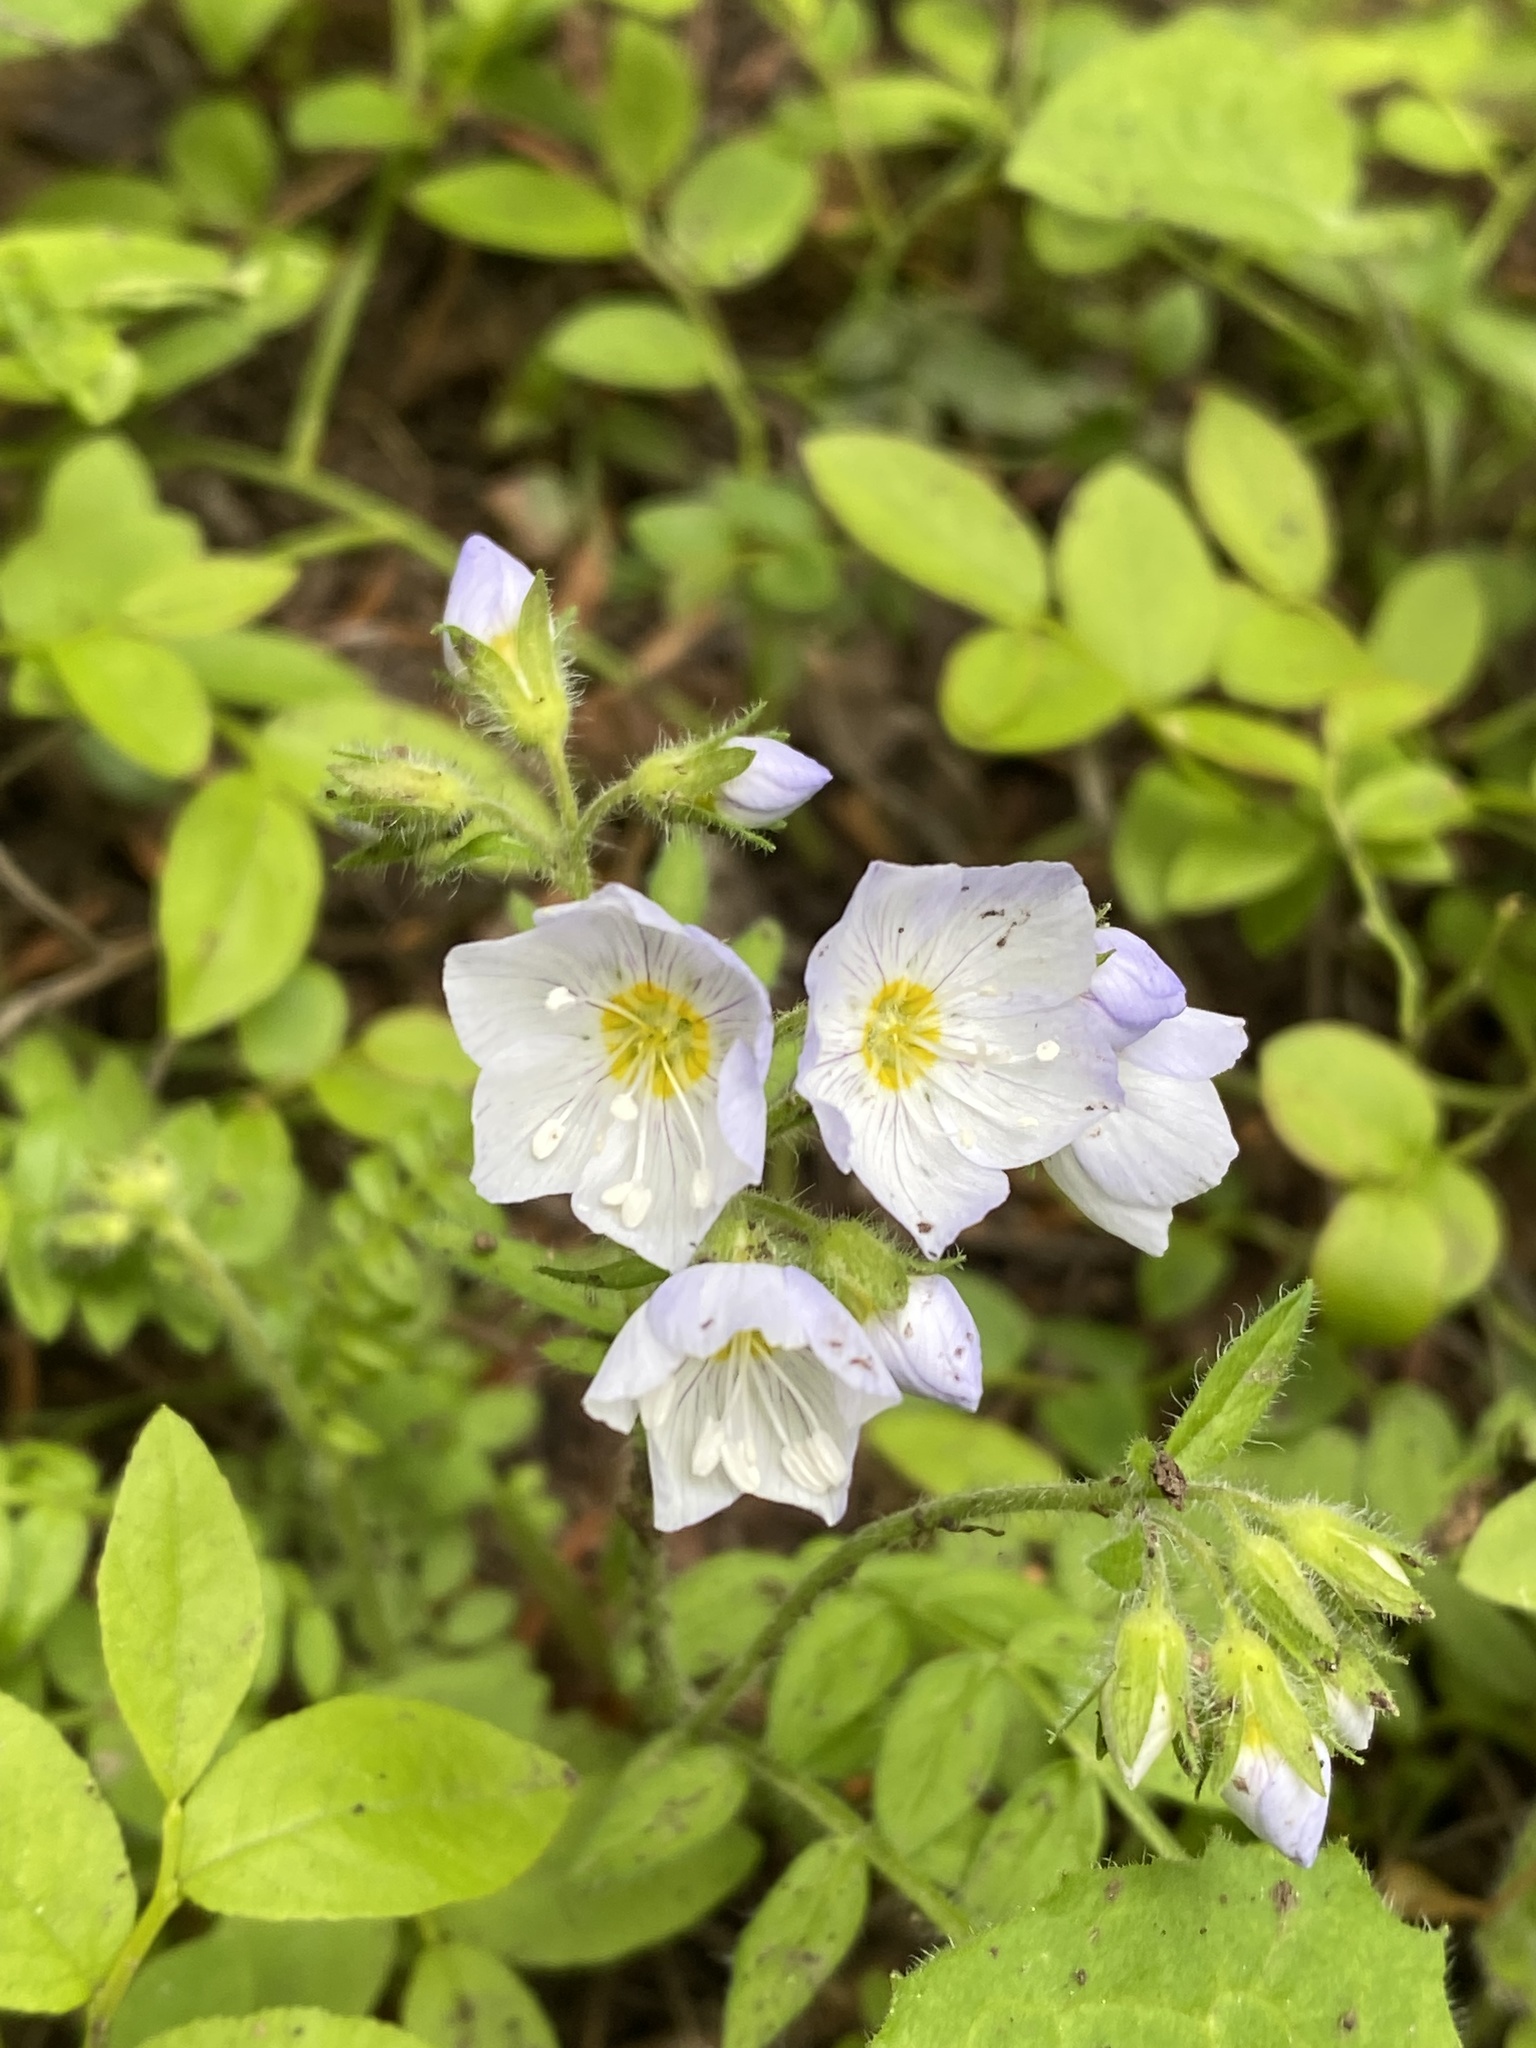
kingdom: Plantae
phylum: Tracheophyta
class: Magnoliopsida
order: Ericales
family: Polemoniaceae
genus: Polemonium
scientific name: Polemonium pulcherrimum
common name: Short jacob's-ladder
